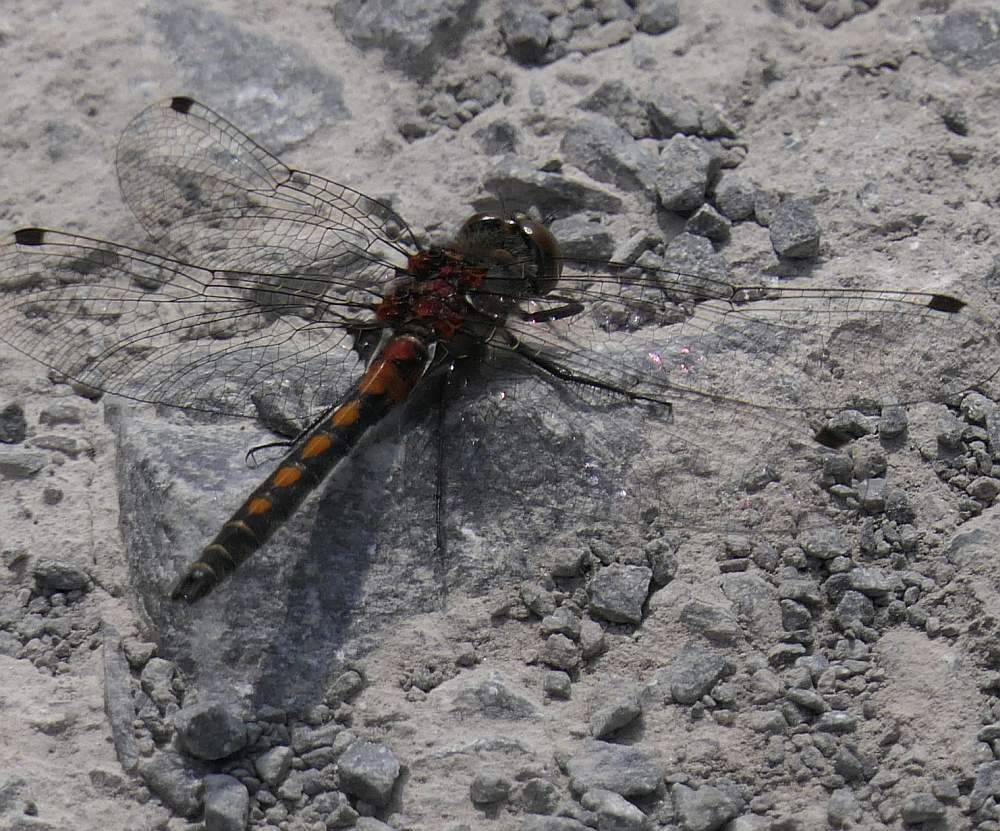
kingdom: Animalia
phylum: Arthropoda
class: Insecta
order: Odonata
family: Libellulidae
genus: Leucorrhinia
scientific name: Leucorrhinia hudsonica
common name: Hudsonian whiteface
